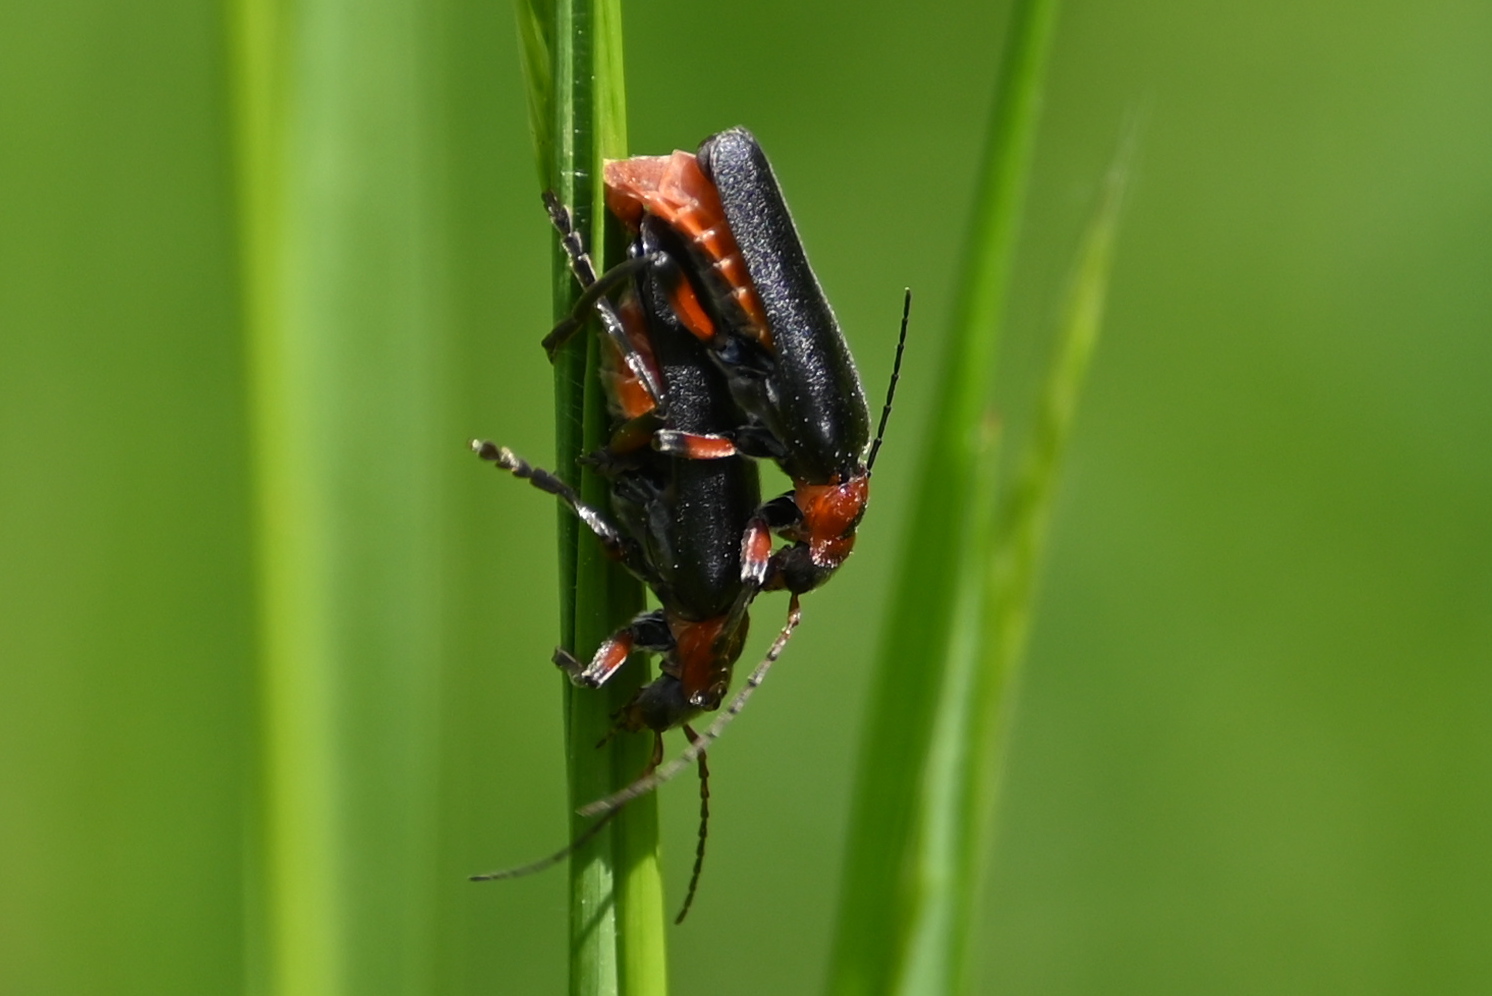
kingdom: Animalia
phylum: Arthropoda
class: Insecta
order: Coleoptera
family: Cantharidae
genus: Cantharis
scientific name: Cantharis rustica
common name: Soldier beetle
